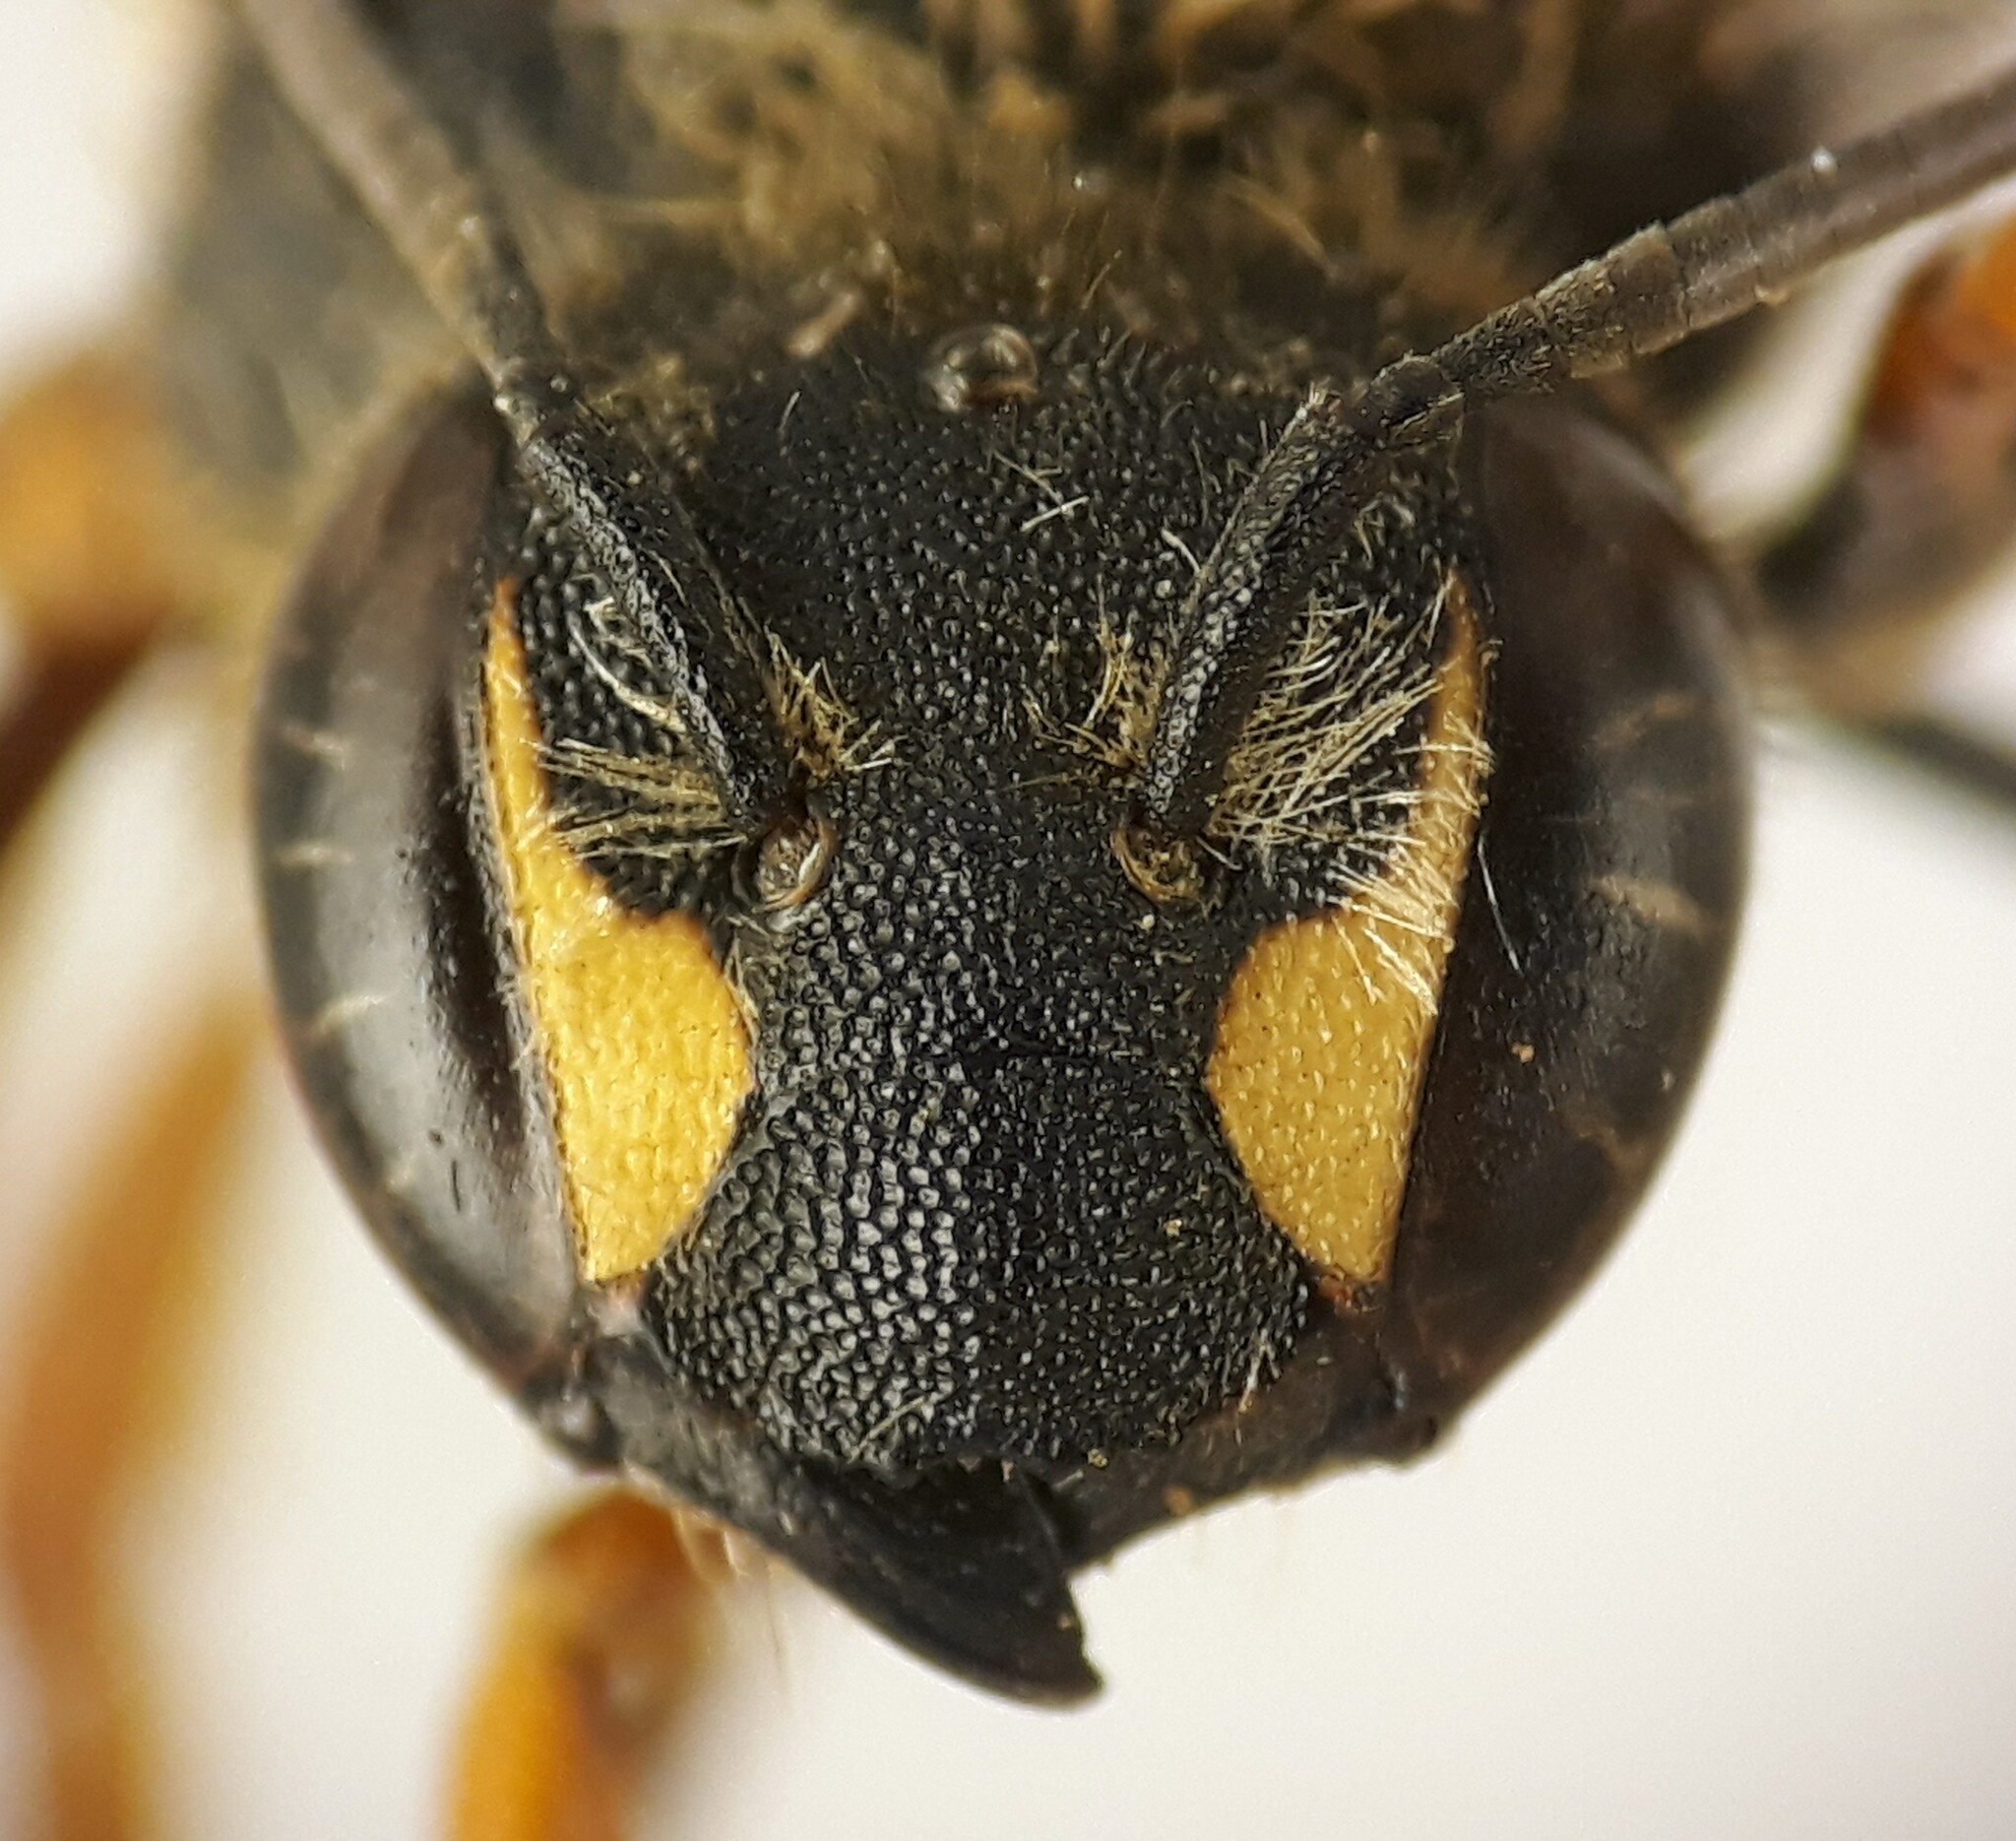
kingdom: Animalia
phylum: Arthropoda
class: Insecta
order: Hymenoptera
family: Megachilidae
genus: Rhodanthidium
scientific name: Rhodanthidium septemdentatum
